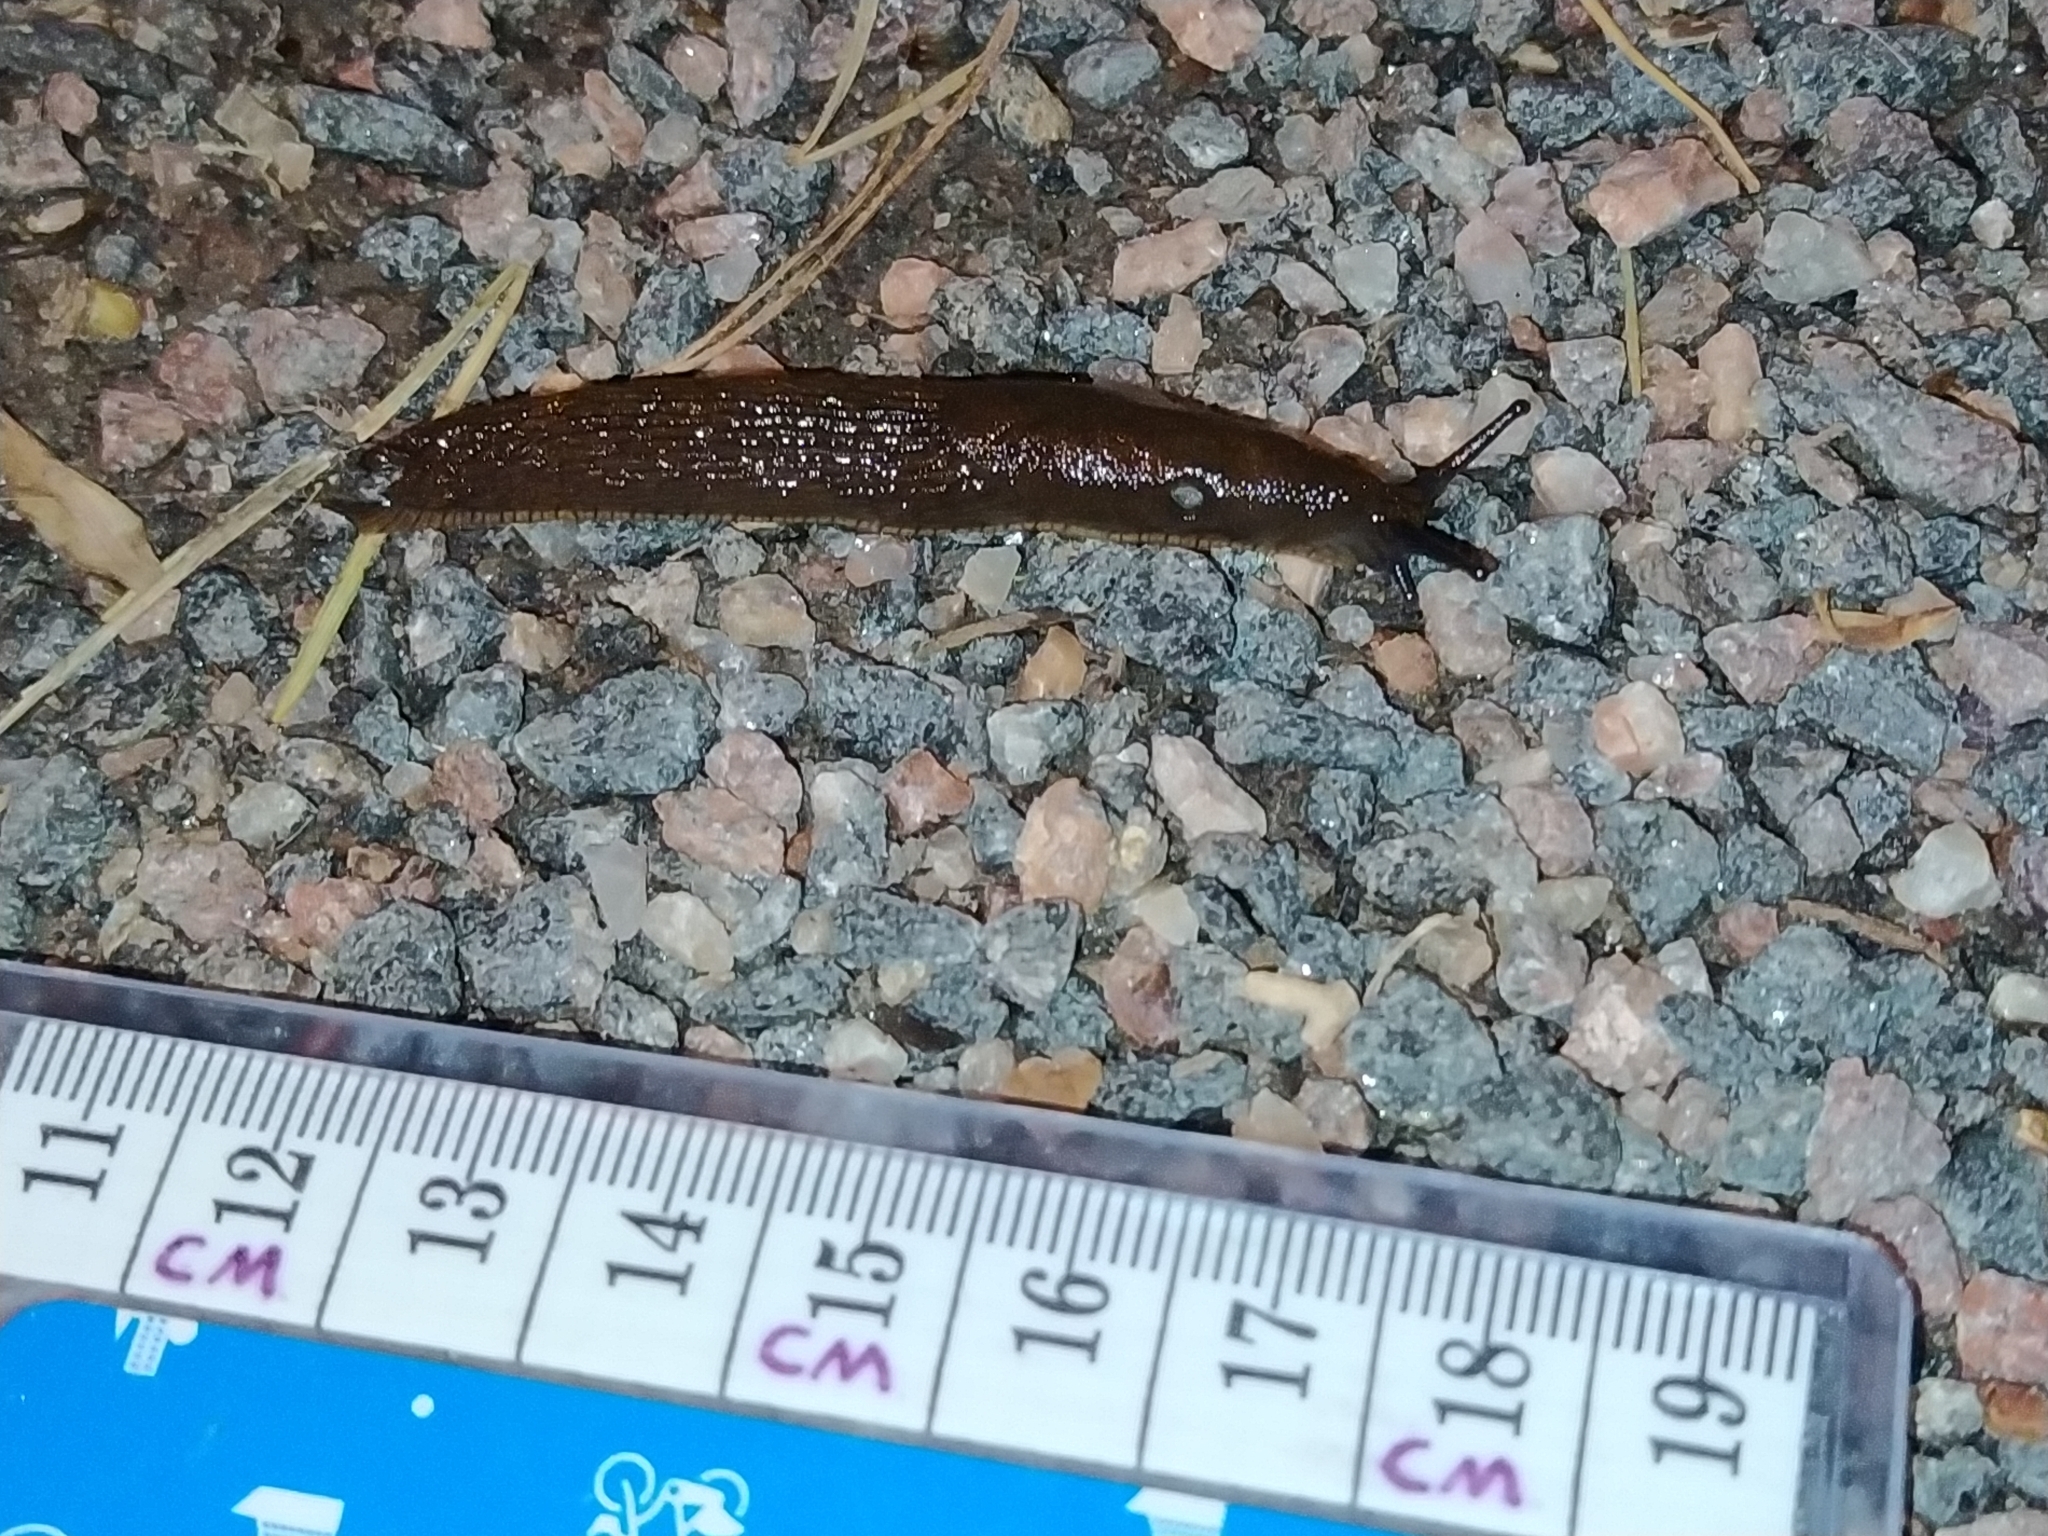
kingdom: Animalia
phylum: Mollusca
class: Gastropoda
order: Stylommatophora
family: Arionidae
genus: Arion
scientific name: Arion vulgaris
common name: Lusitanian slug
